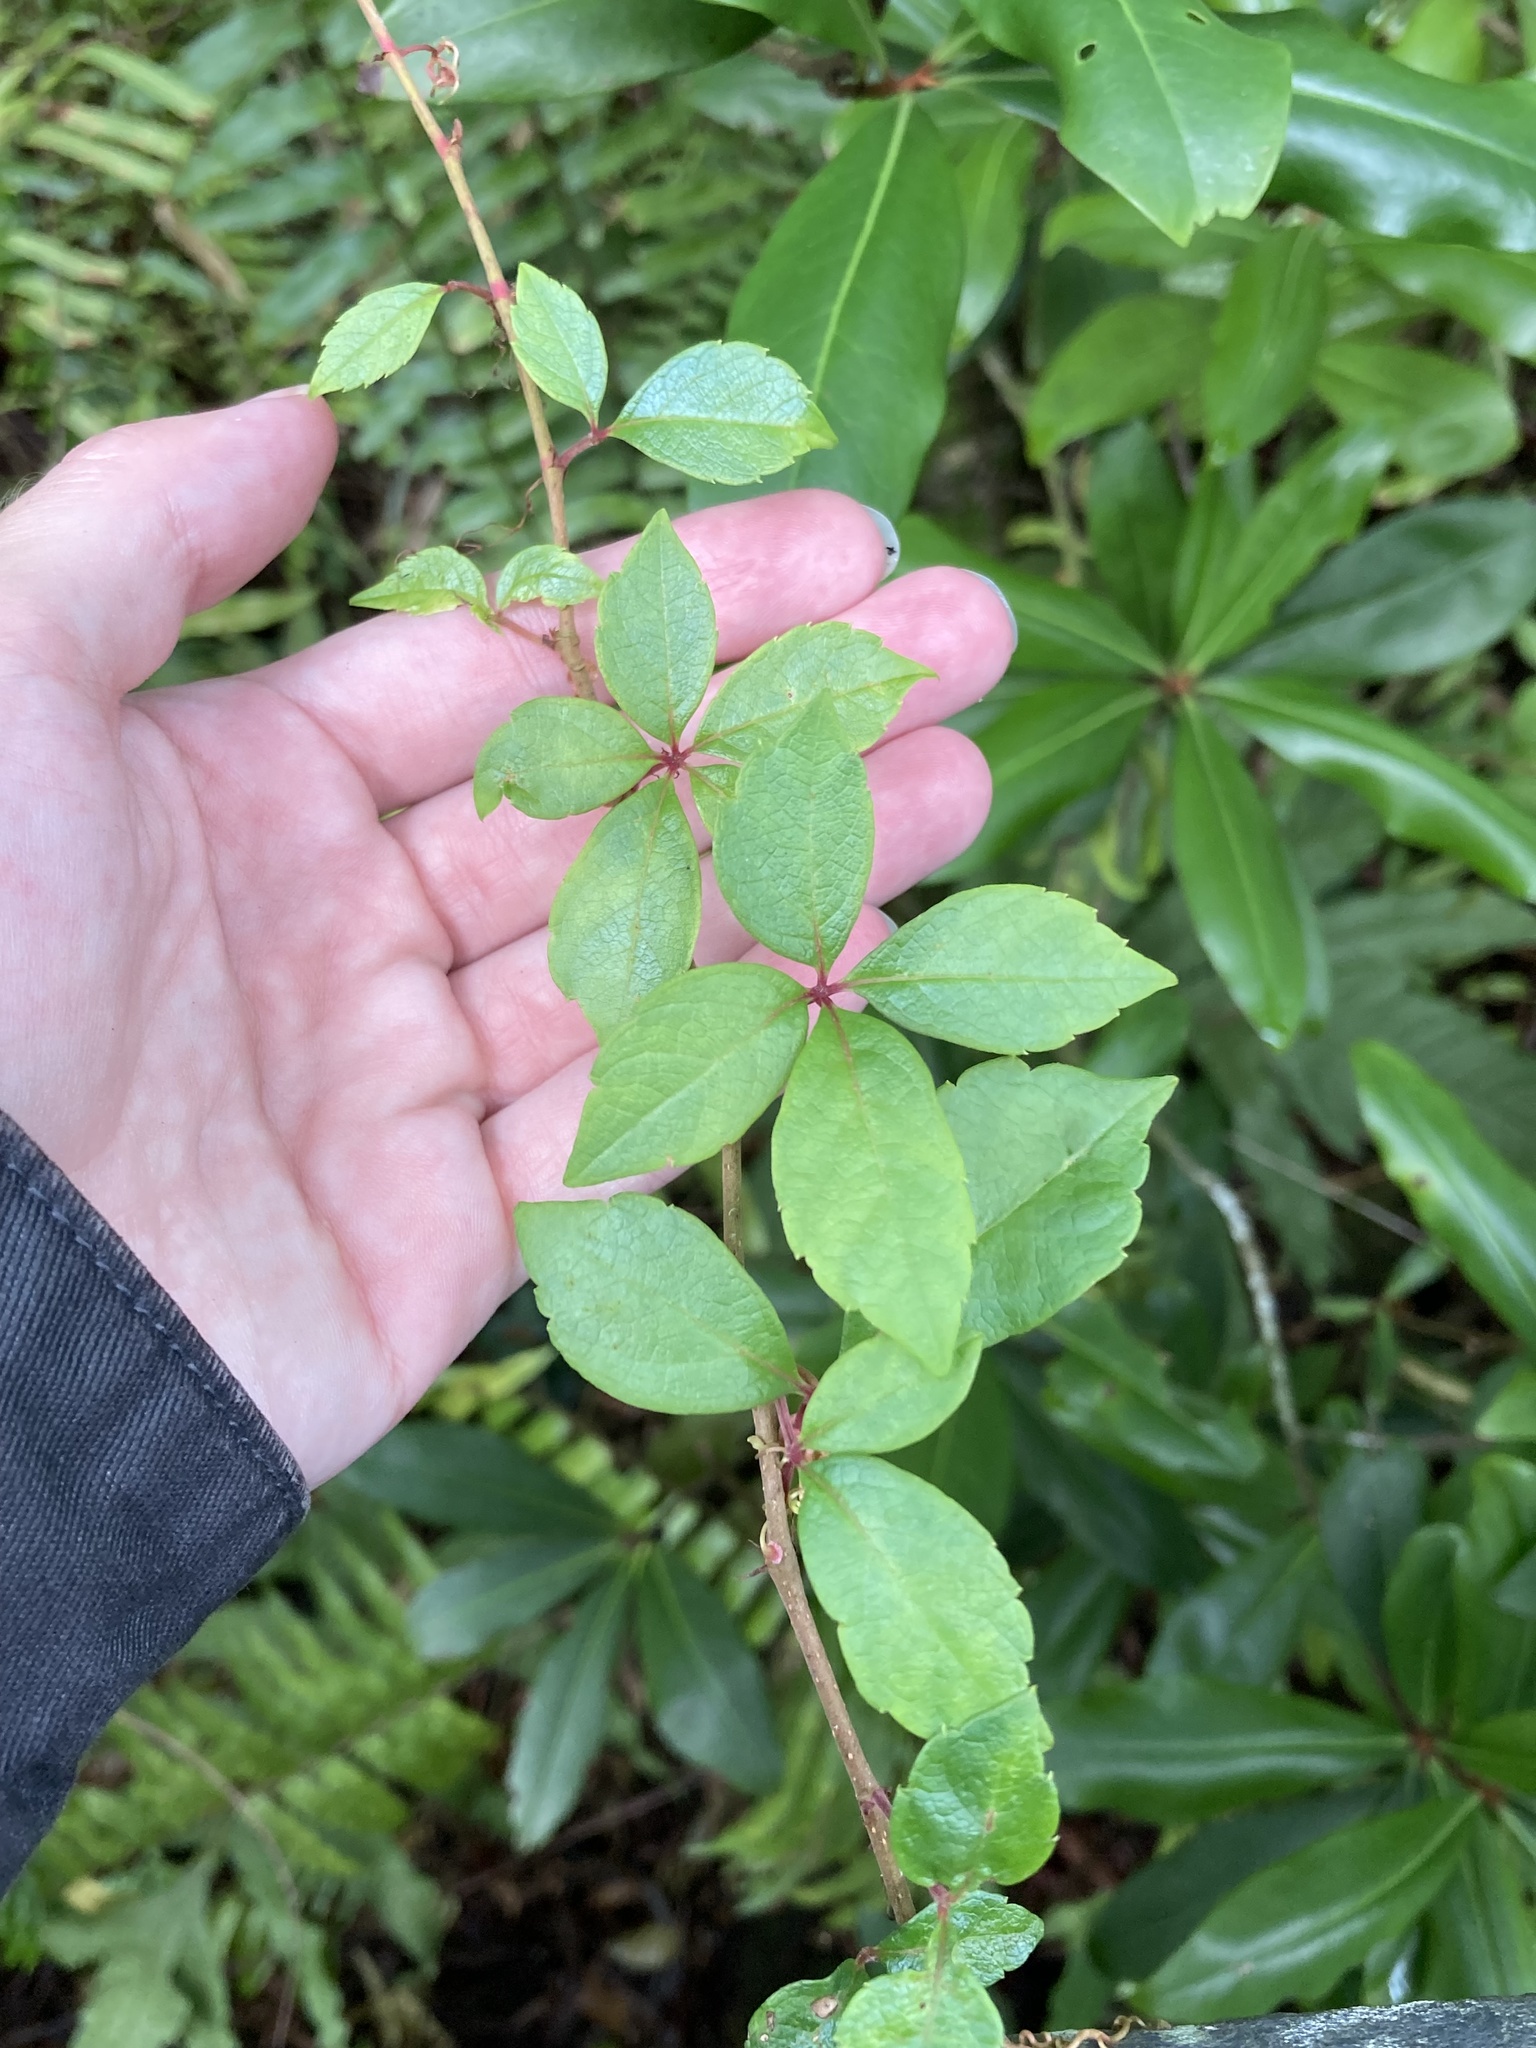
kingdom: Plantae
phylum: Tracheophyta
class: Magnoliopsida
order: Vitales
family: Vitaceae
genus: Parthenocissus
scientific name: Parthenocissus quinquefolia
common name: Virginia-creeper
